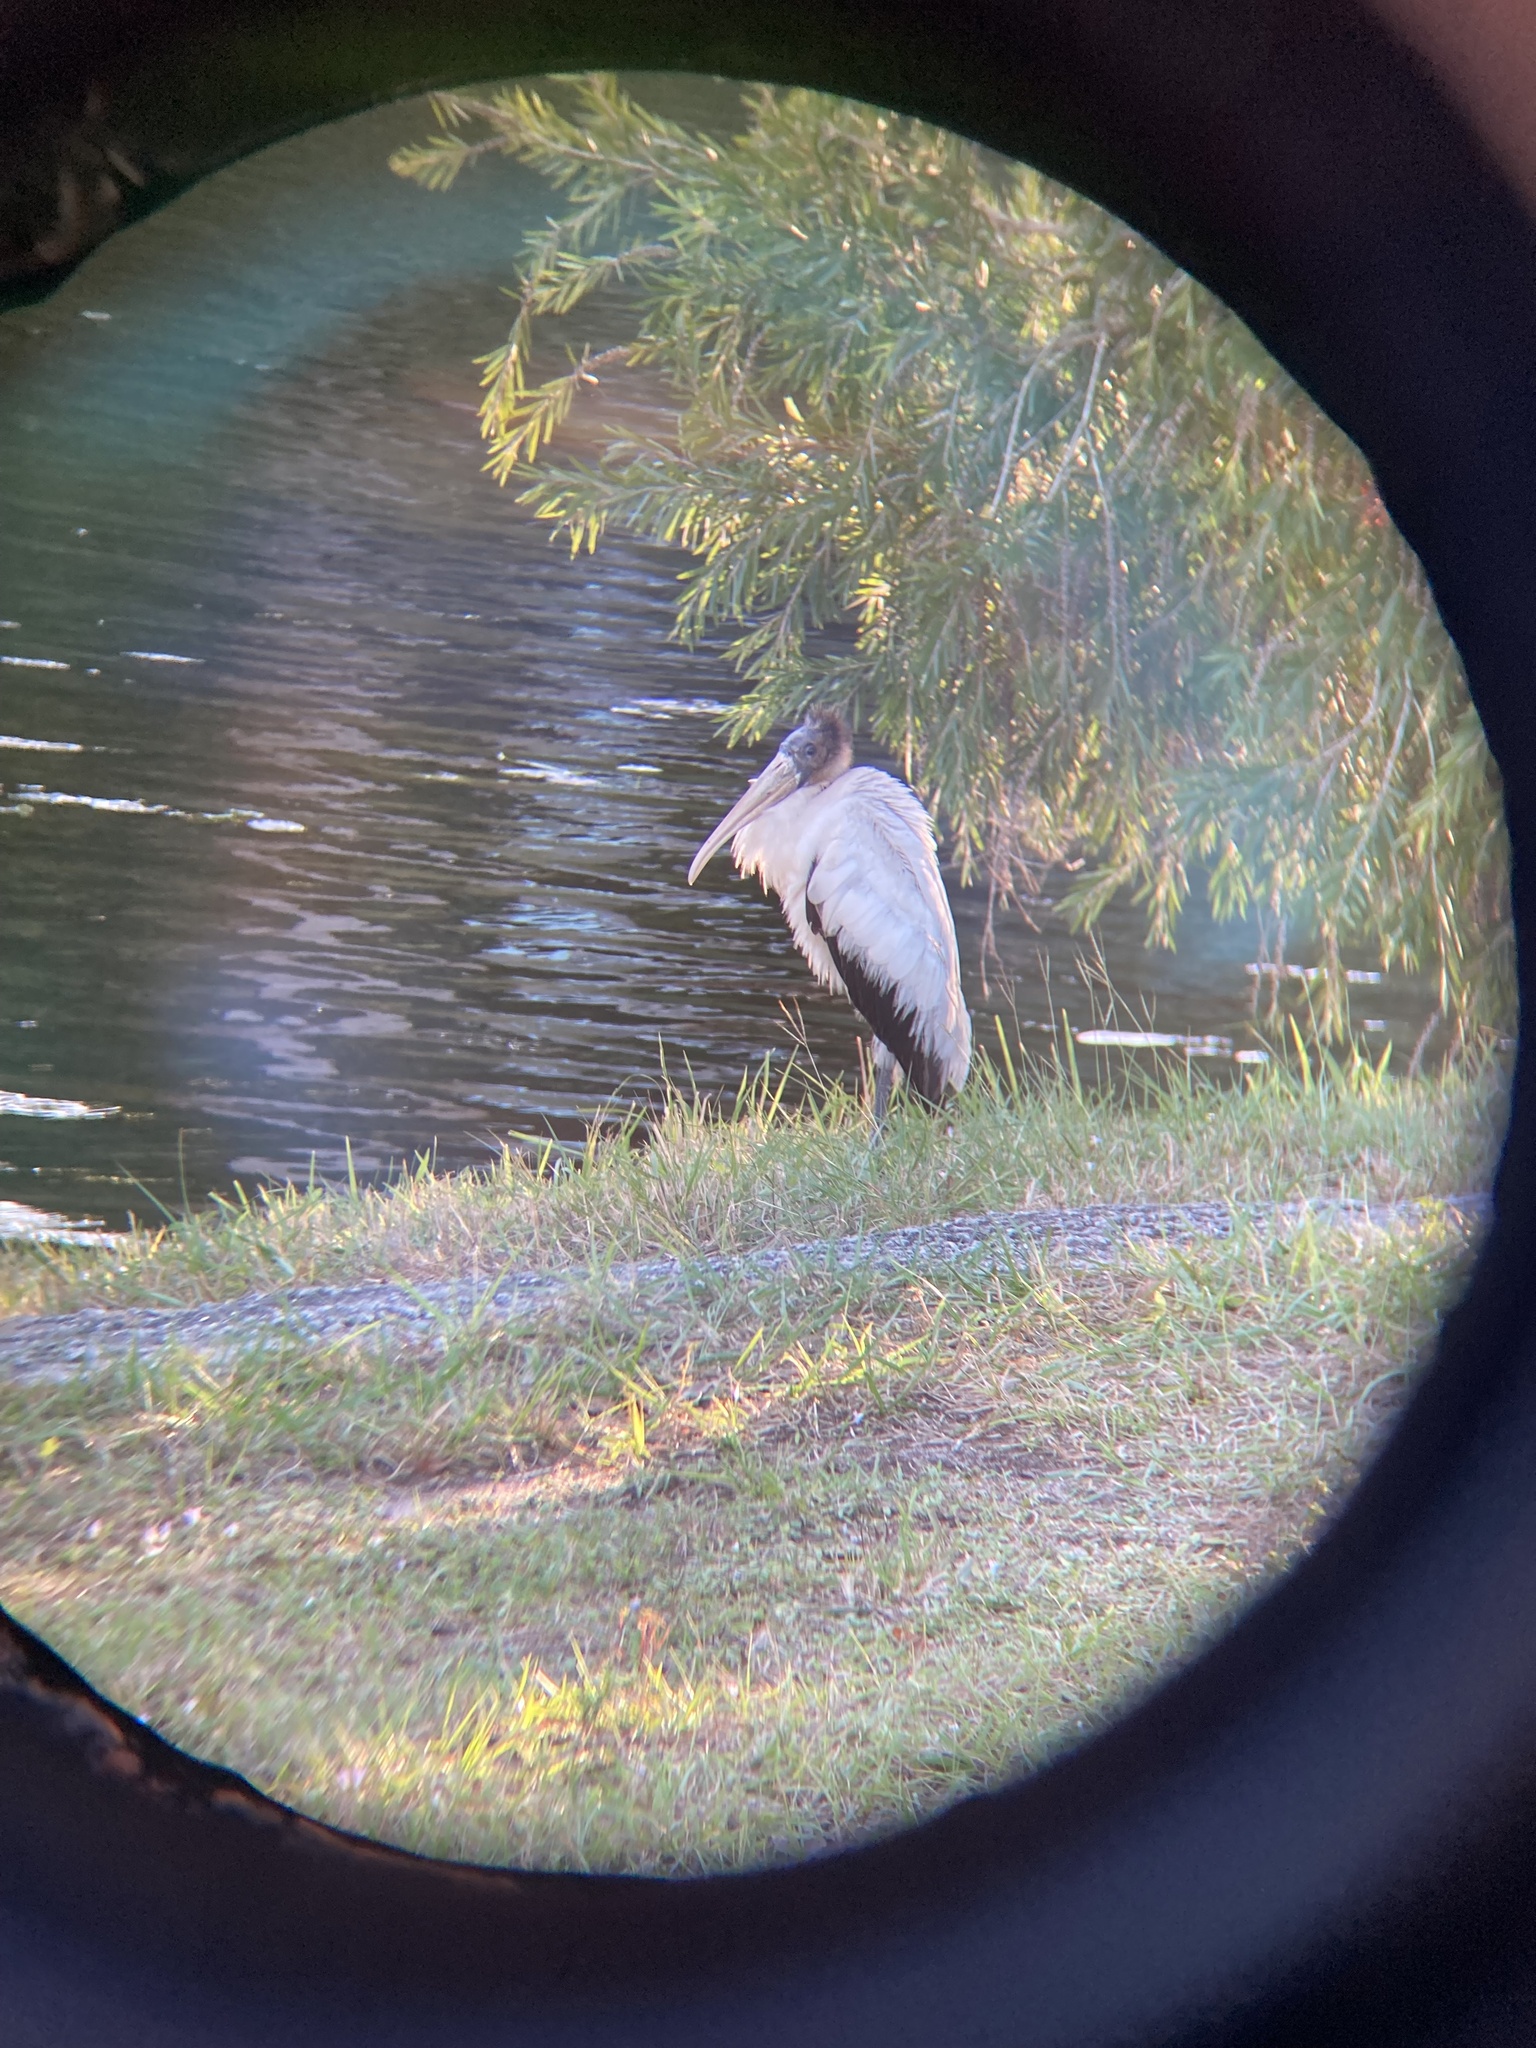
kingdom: Animalia
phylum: Chordata
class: Aves
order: Ciconiiformes
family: Ciconiidae
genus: Mycteria
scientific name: Mycteria americana
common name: Wood stork
